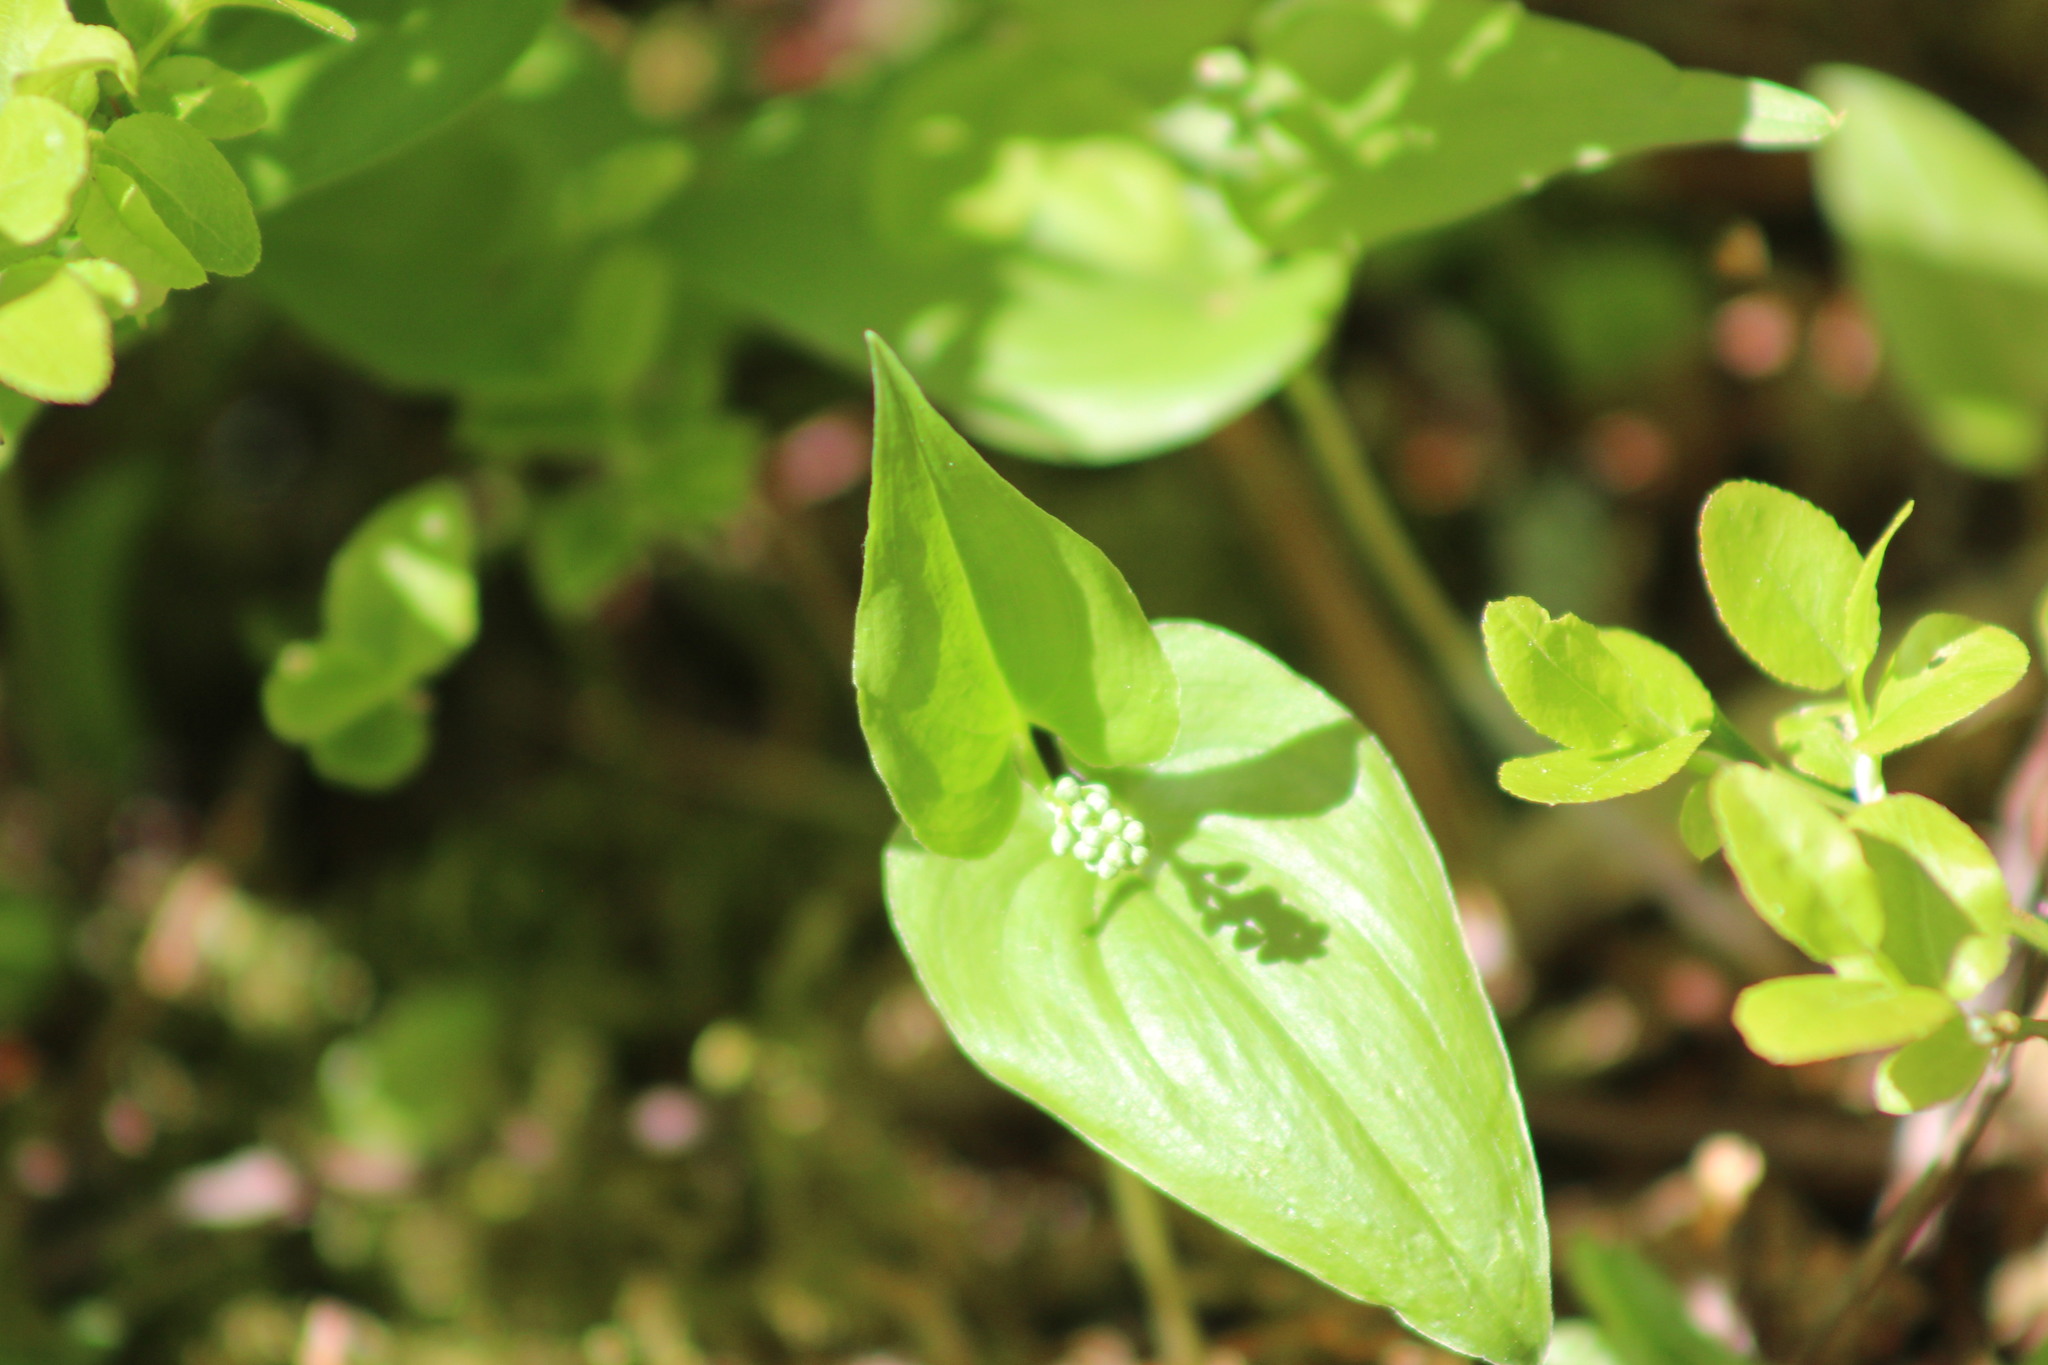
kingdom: Plantae
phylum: Tracheophyta
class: Liliopsida
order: Asparagales
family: Asparagaceae
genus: Maianthemum
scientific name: Maianthemum bifolium
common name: May lily
